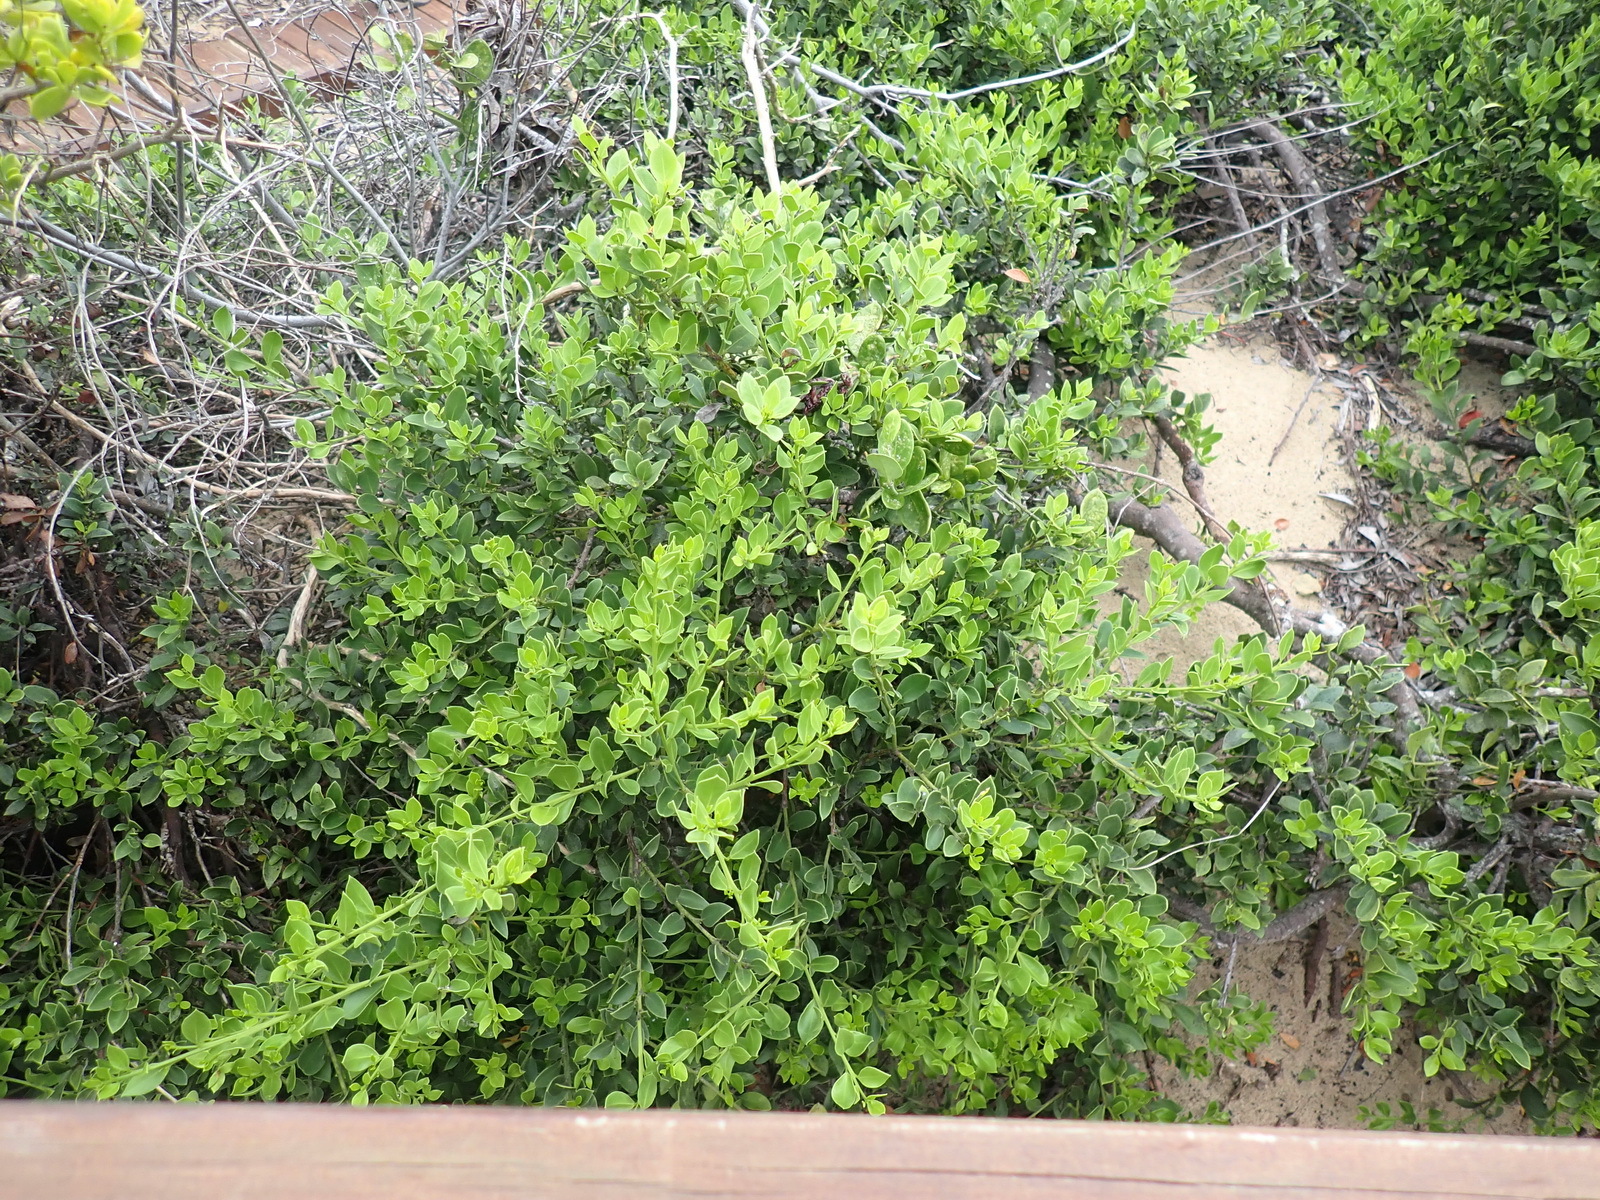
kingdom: Plantae
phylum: Tracheophyta
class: Magnoliopsida
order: Celastrales
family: Celastraceae
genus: Robsonodendron
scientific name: Robsonodendron maritimum
